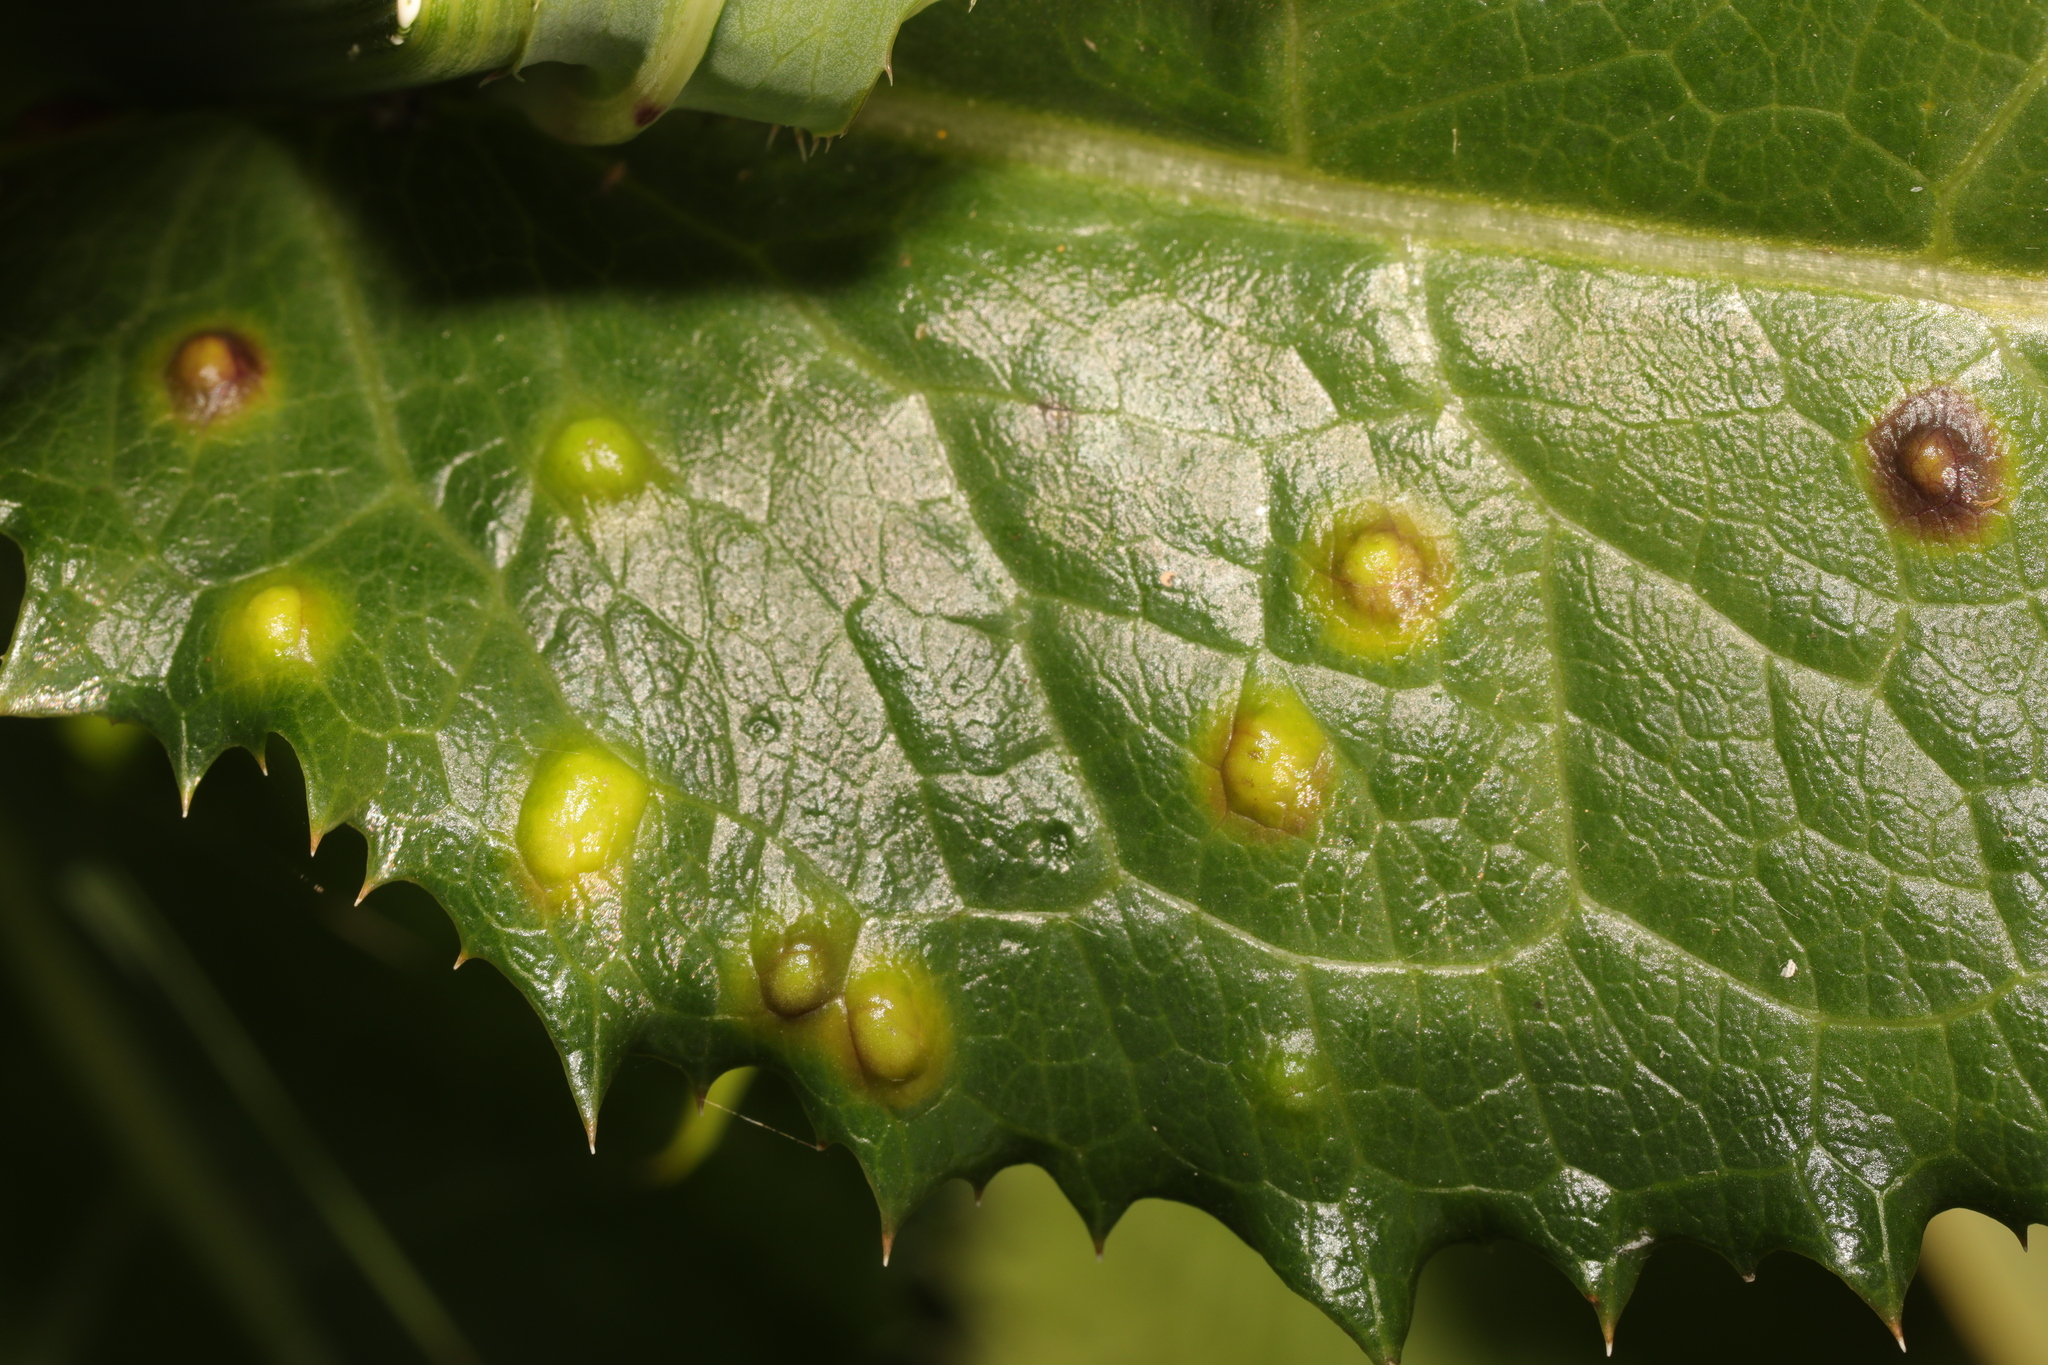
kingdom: Animalia
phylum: Arthropoda
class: Insecta
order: Diptera
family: Cecidomyiidae
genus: Cystiphora
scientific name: Cystiphora sonchi
